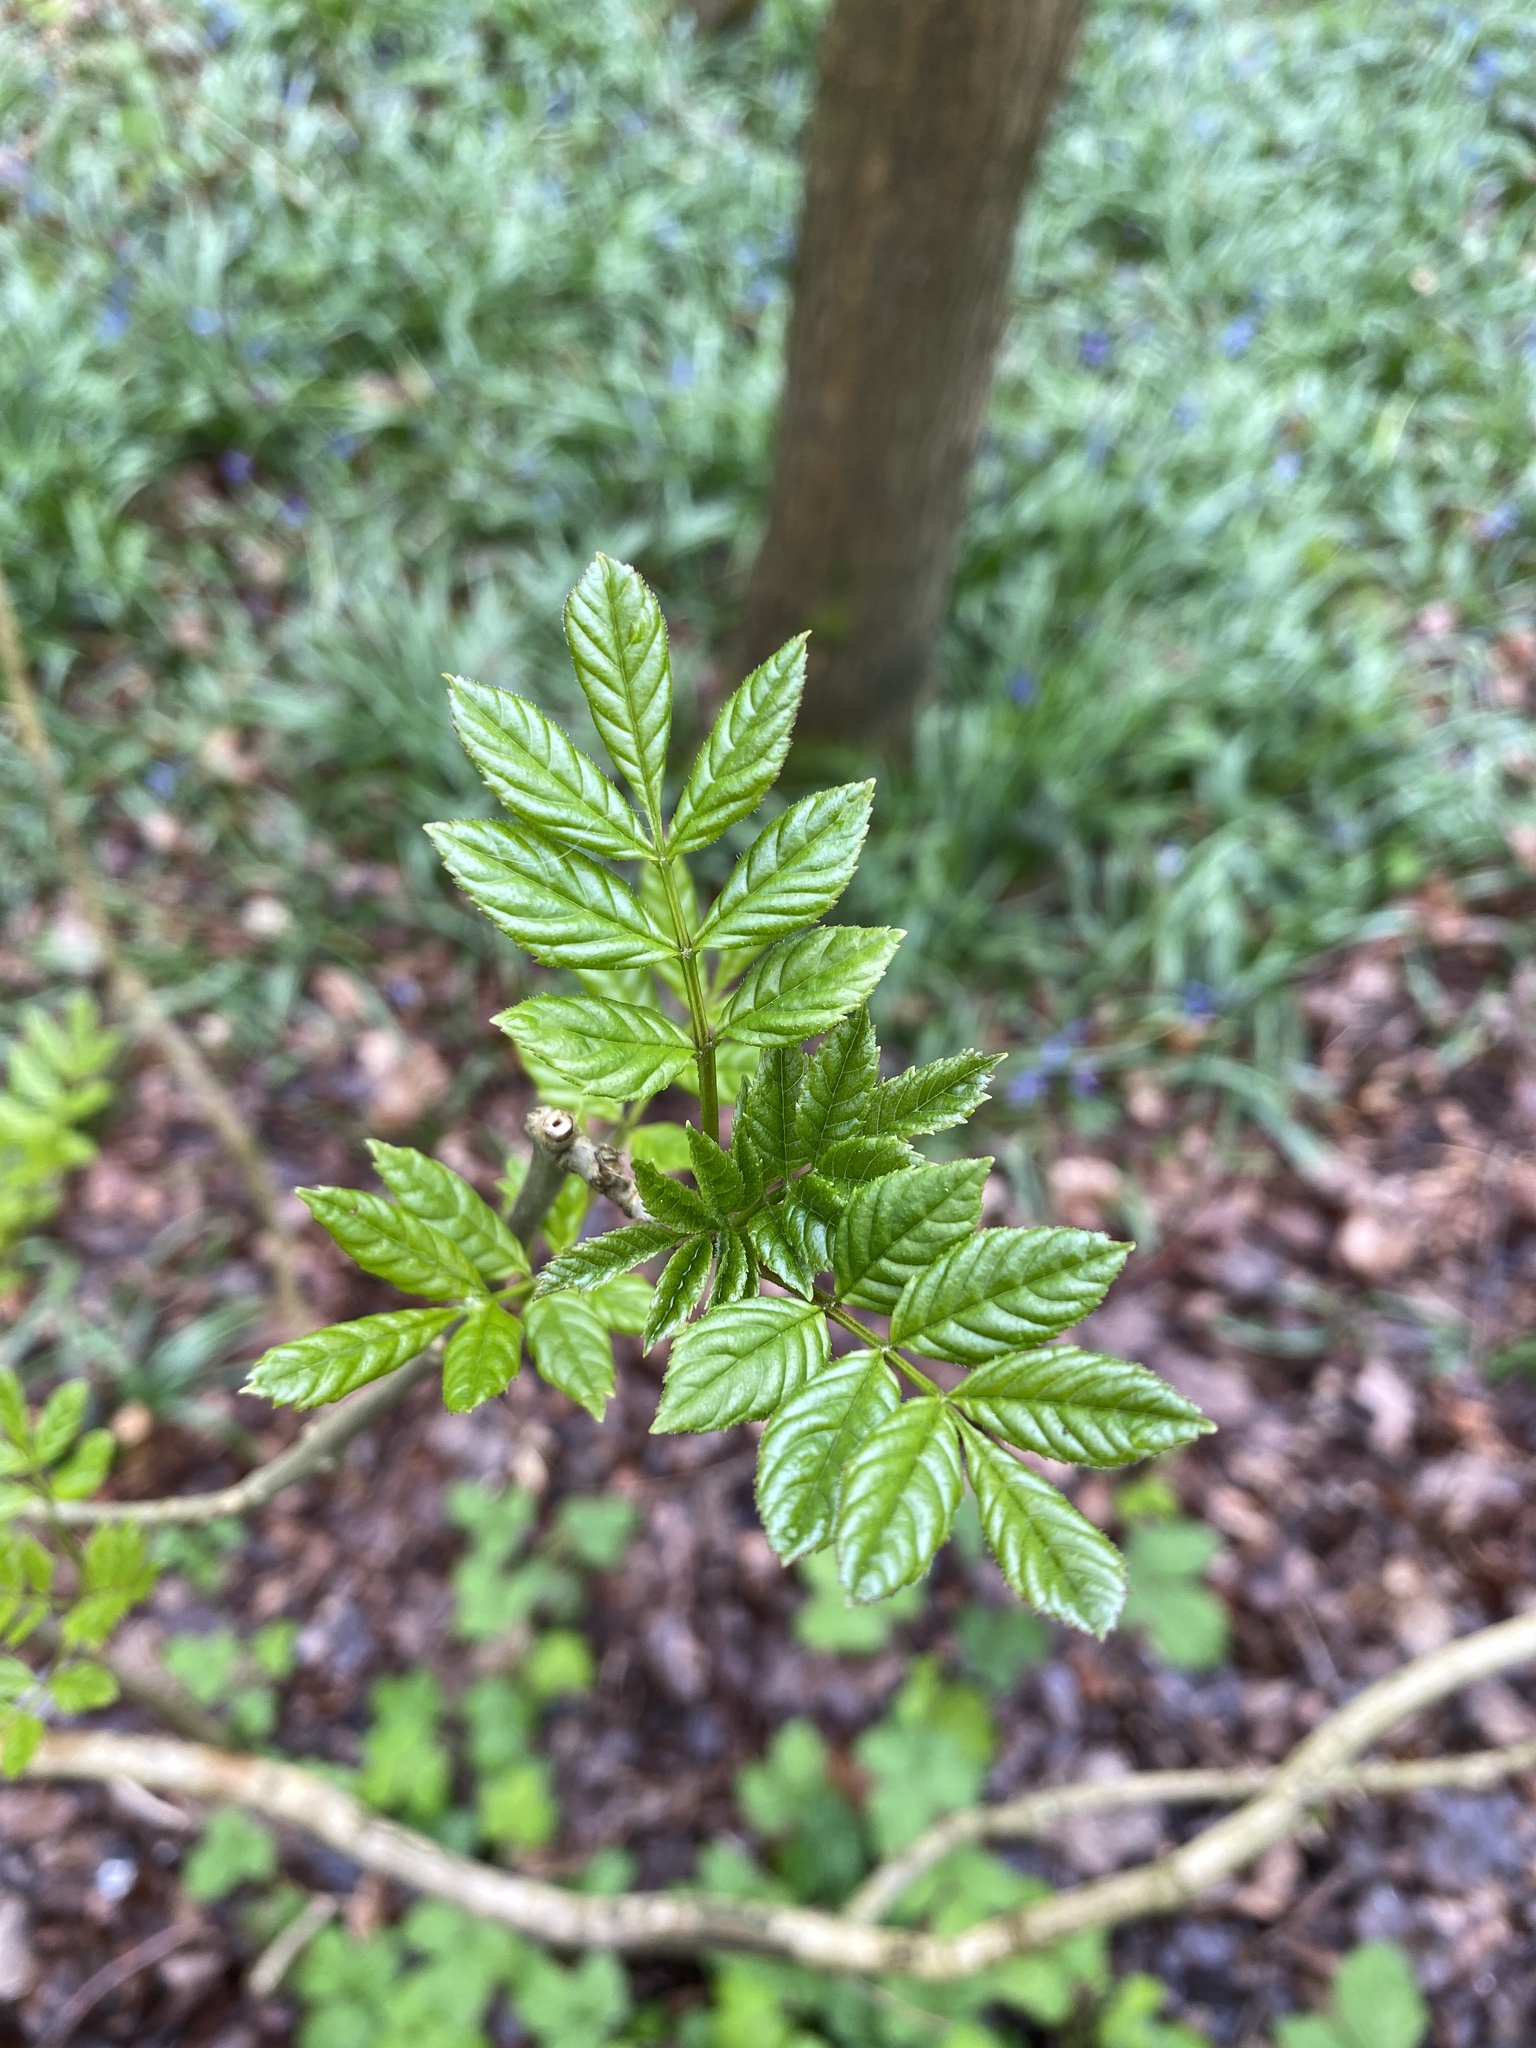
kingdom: Plantae
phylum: Tracheophyta
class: Magnoliopsida
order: Lamiales
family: Oleaceae
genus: Fraxinus
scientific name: Fraxinus excelsior
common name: European ash
